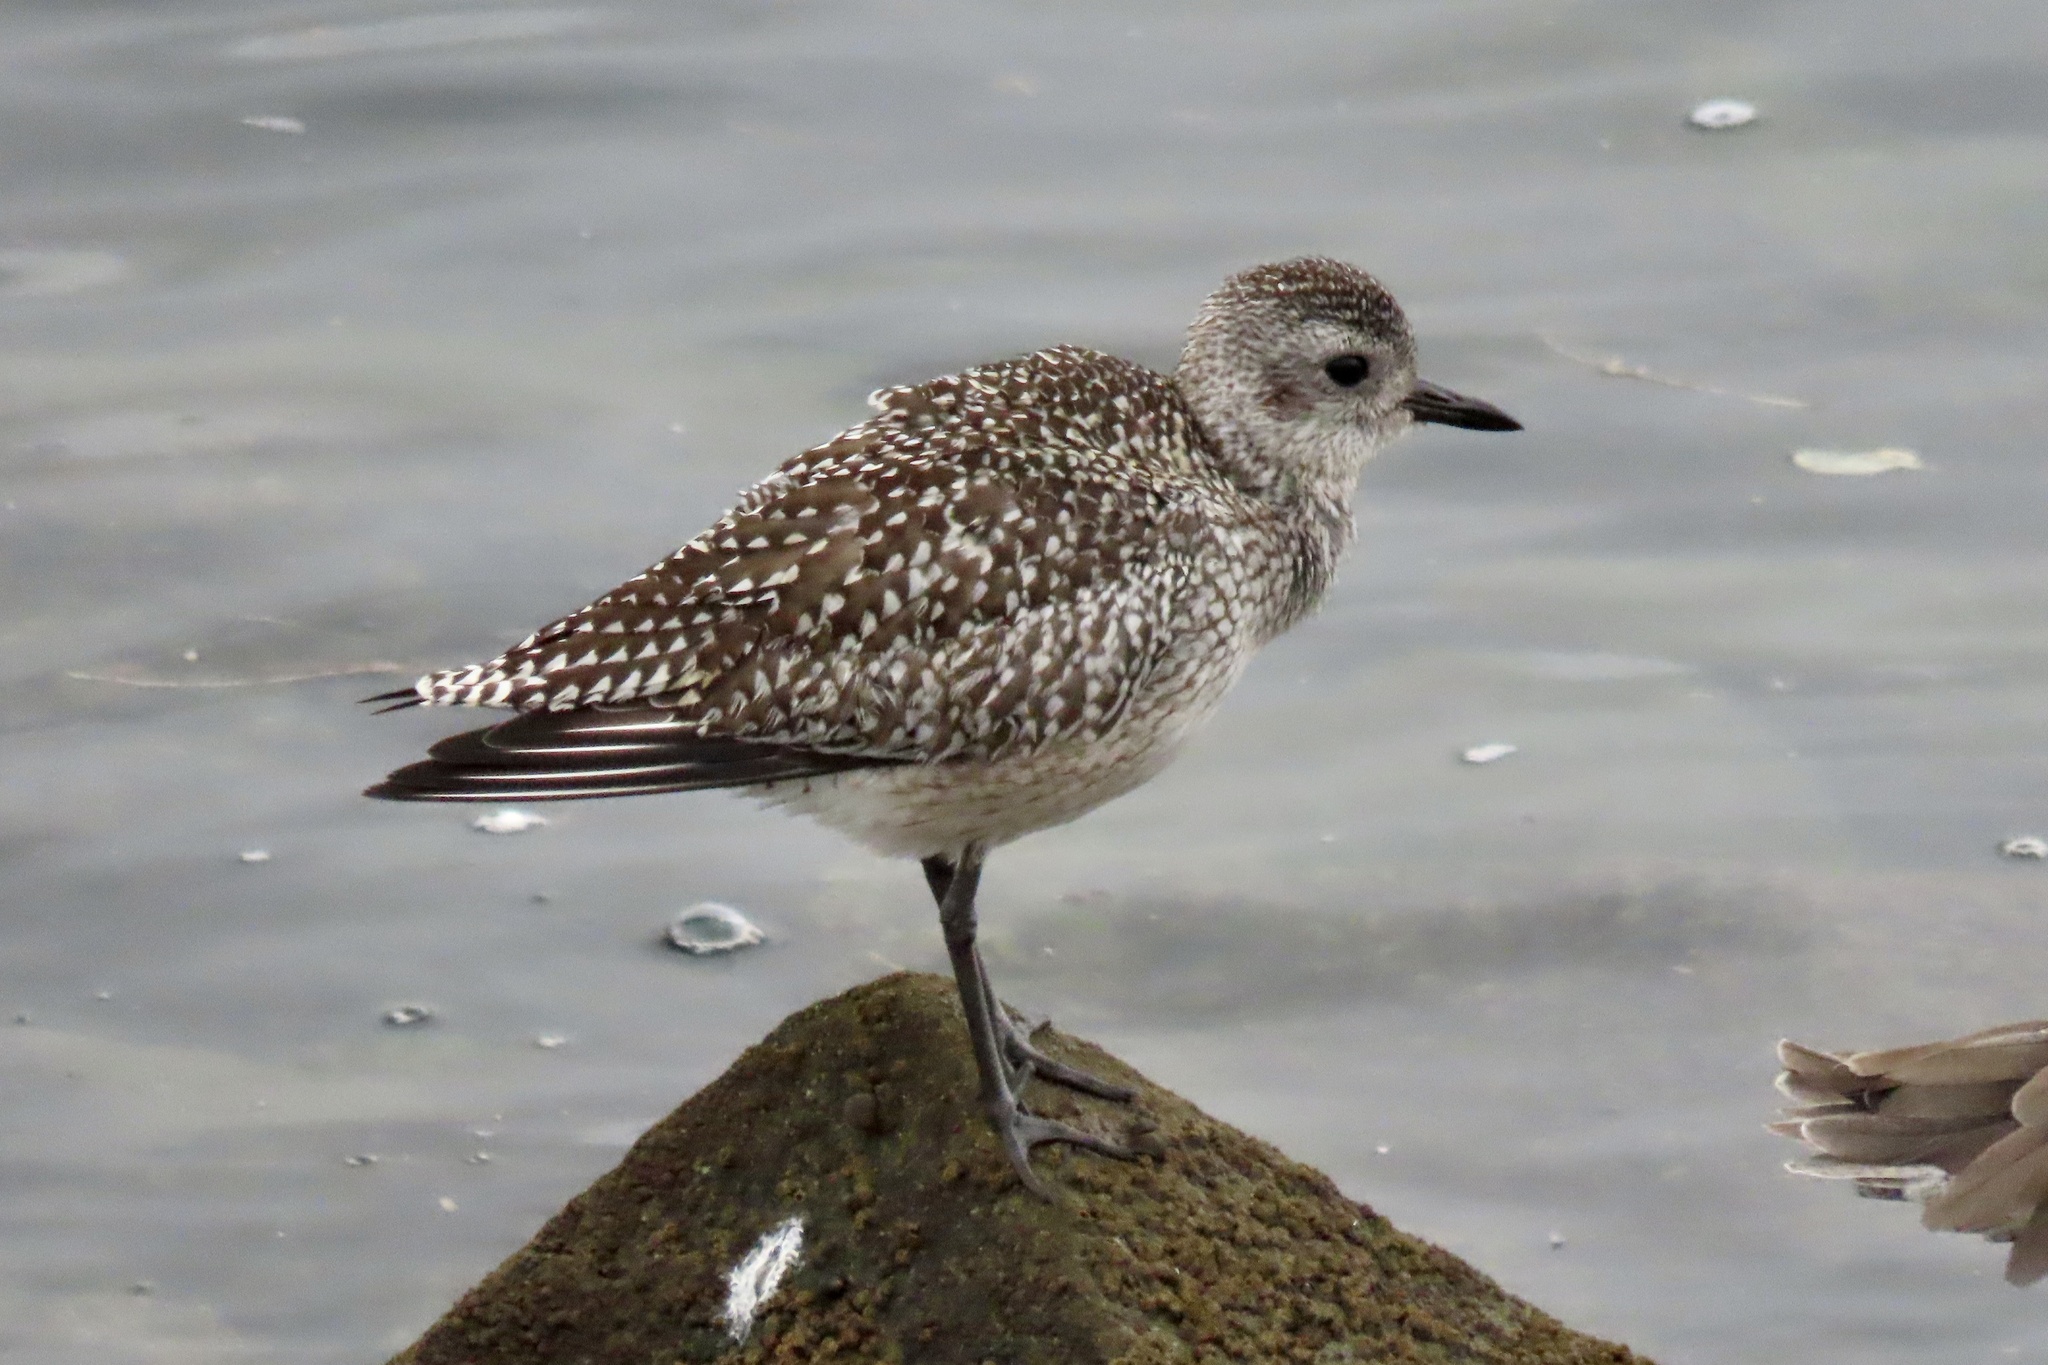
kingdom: Animalia
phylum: Chordata
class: Aves
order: Charadriiformes
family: Charadriidae
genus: Pluvialis
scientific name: Pluvialis squatarola
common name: Grey plover
